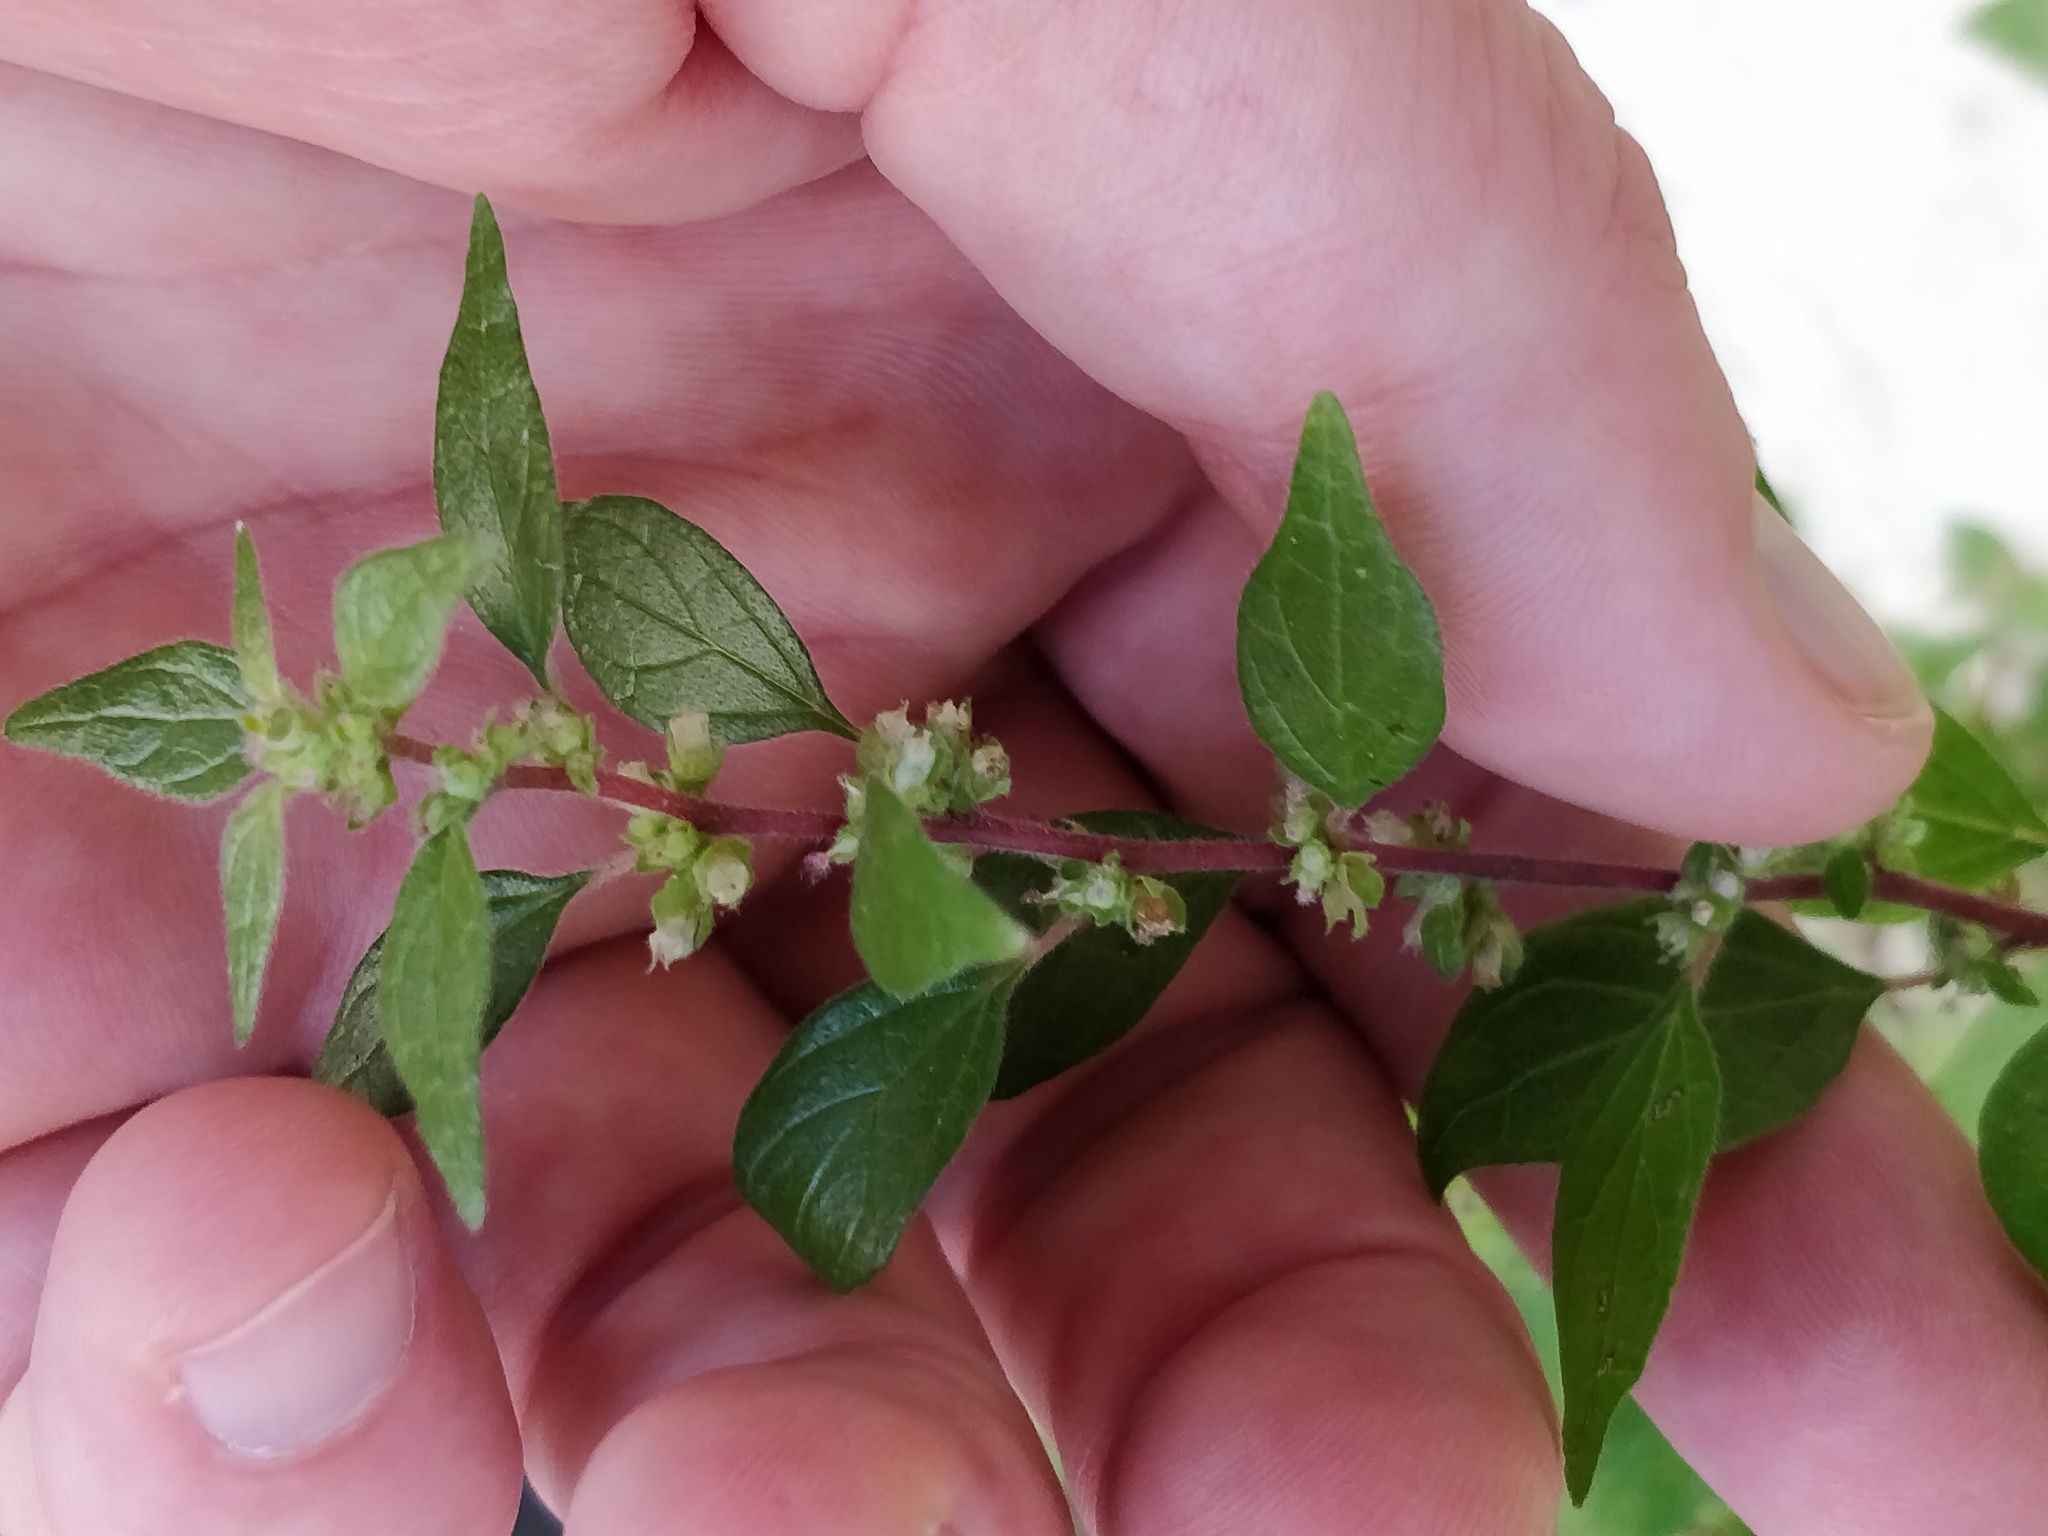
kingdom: Plantae
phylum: Tracheophyta
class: Magnoliopsida
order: Rosales
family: Urticaceae
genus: Parietaria
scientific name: Parietaria judaica
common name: Pellitory-of-the-wall
